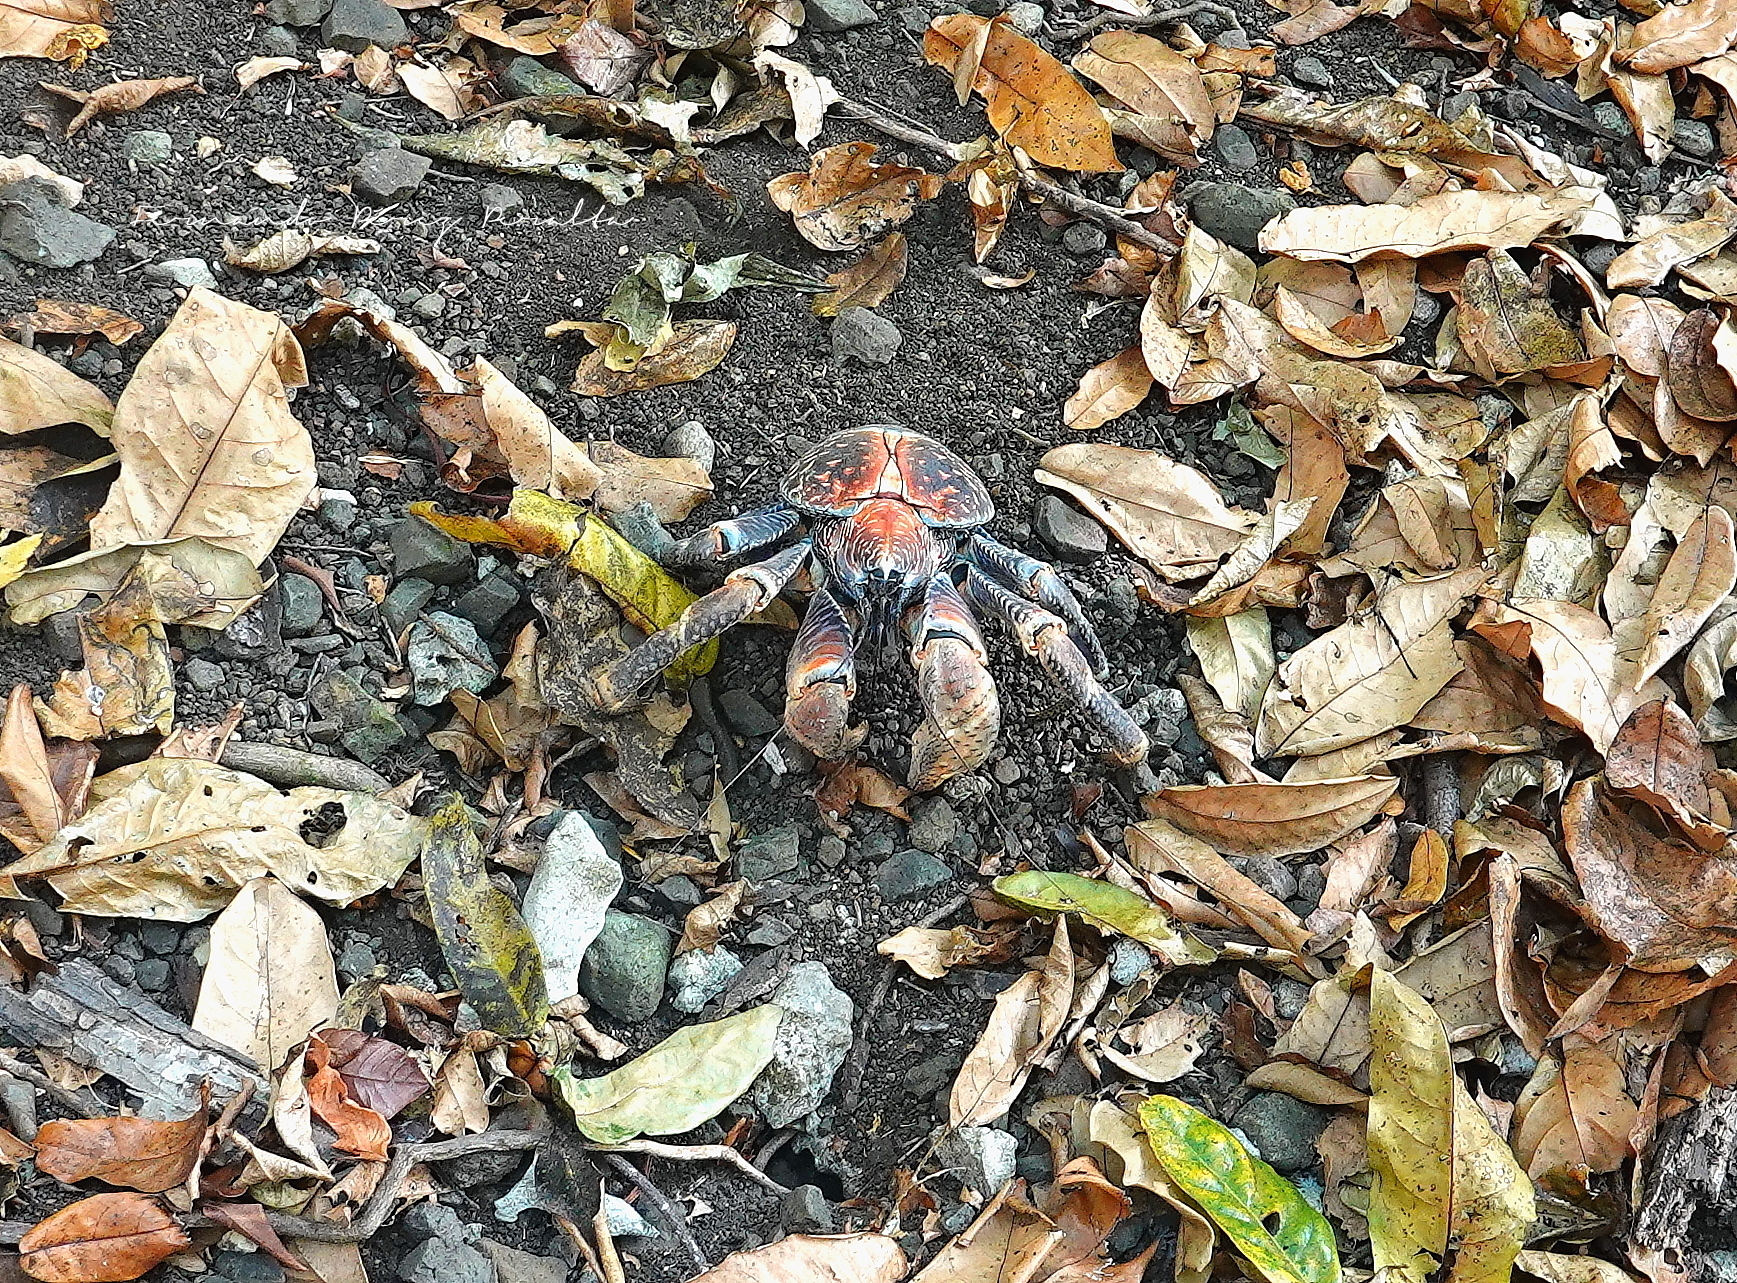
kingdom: Animalia
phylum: Arthropoda
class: Malacostraca
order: Decapoda
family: Coenobitidae
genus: Birgus
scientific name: Birgus latro
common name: Coconut crab
